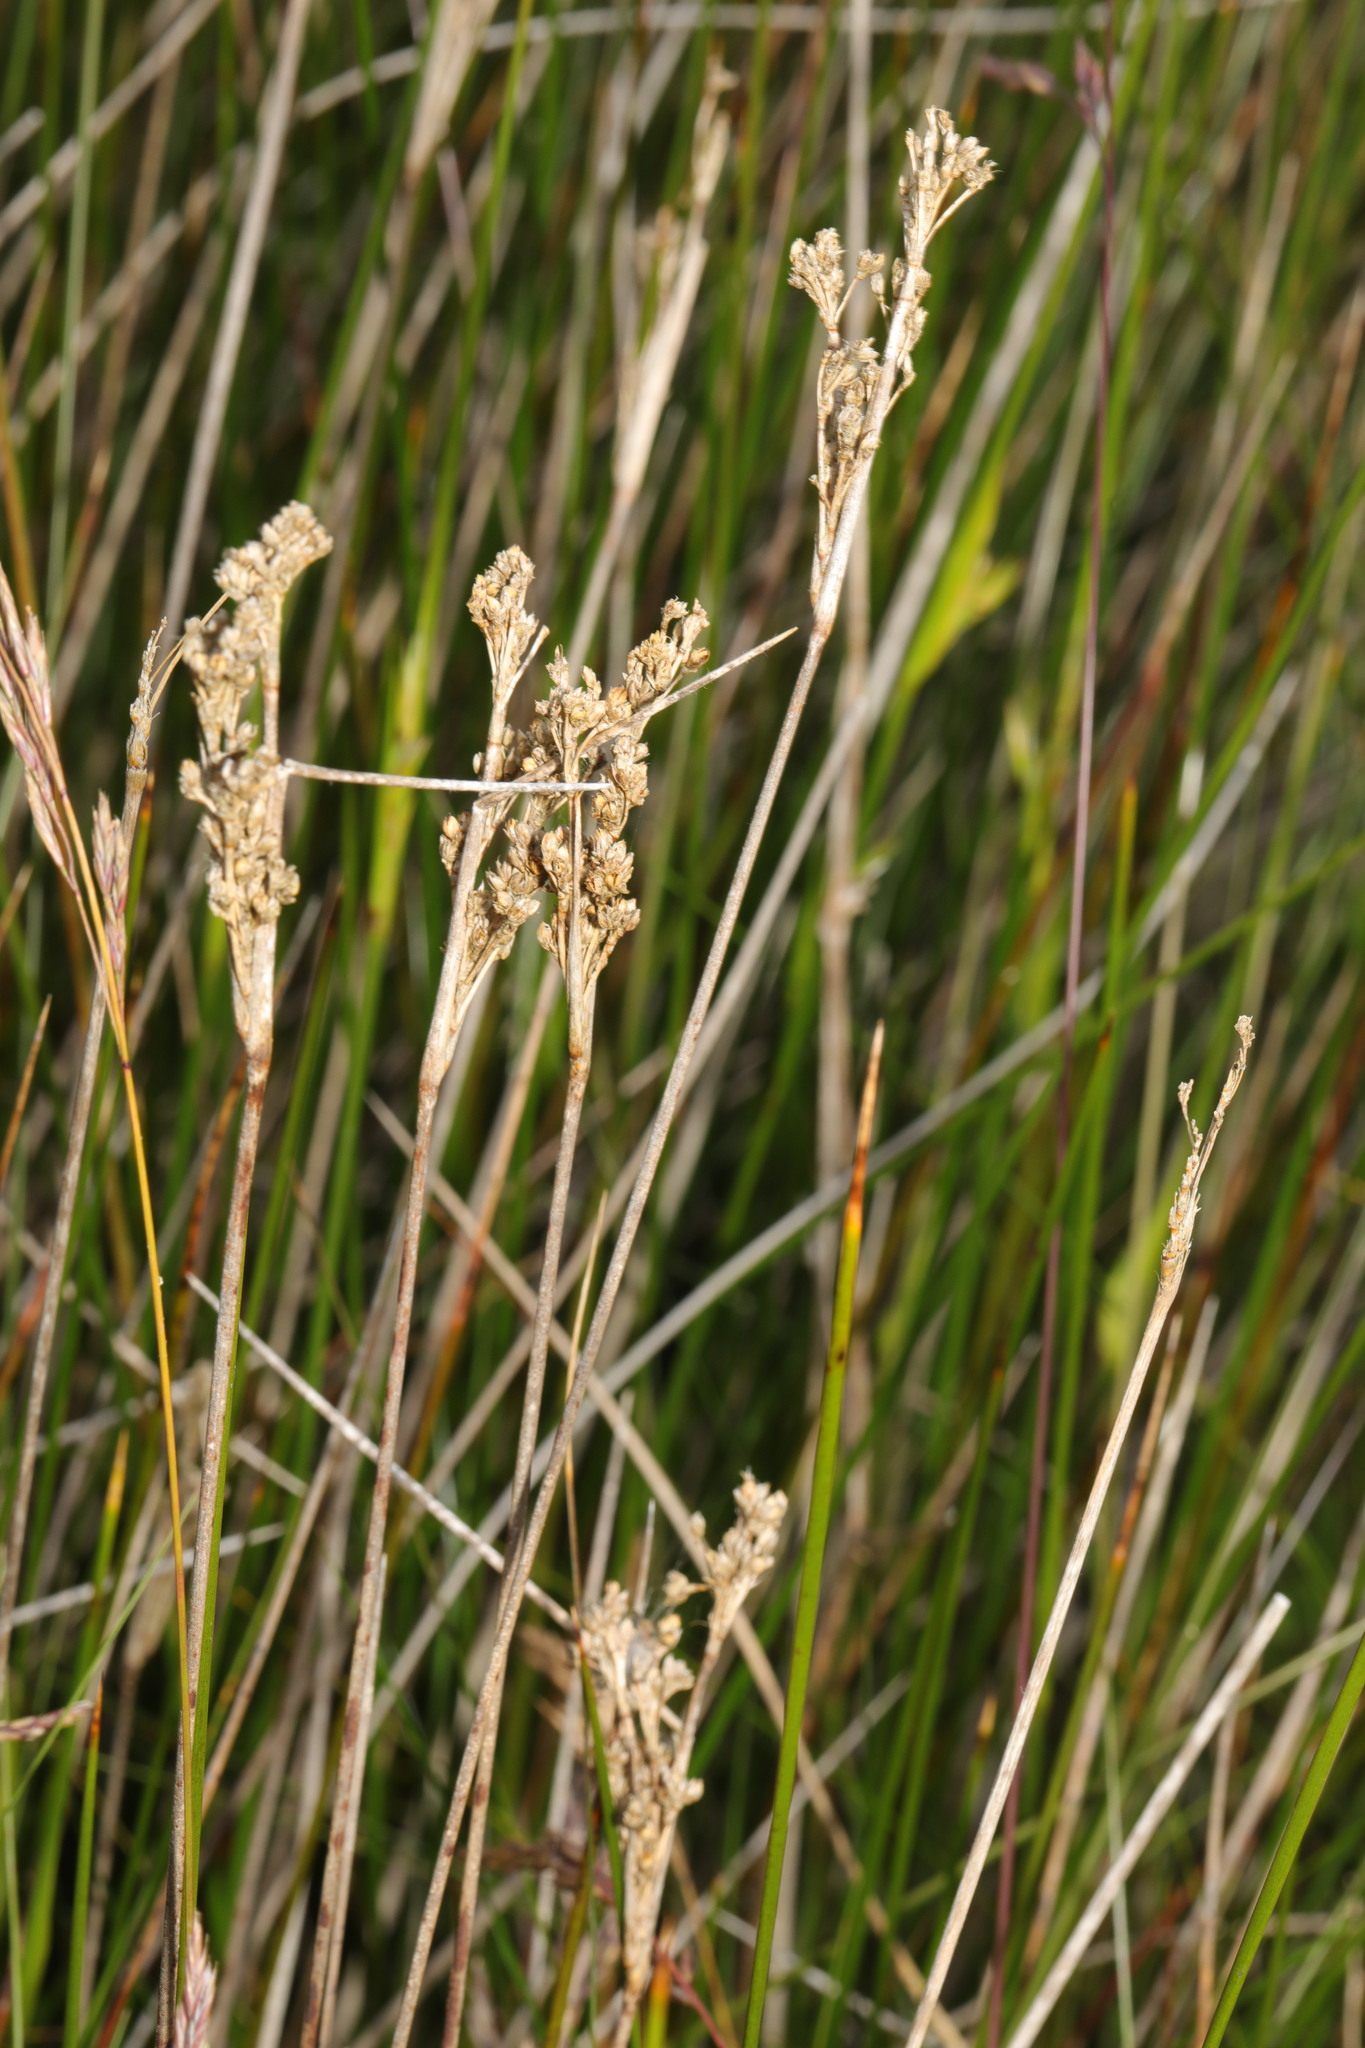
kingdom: Plantae
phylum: Tracheophyta
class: Liliopsida
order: Poales
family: Juncaceae
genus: Juncus
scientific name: Juncus maritimus
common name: Sea rush
